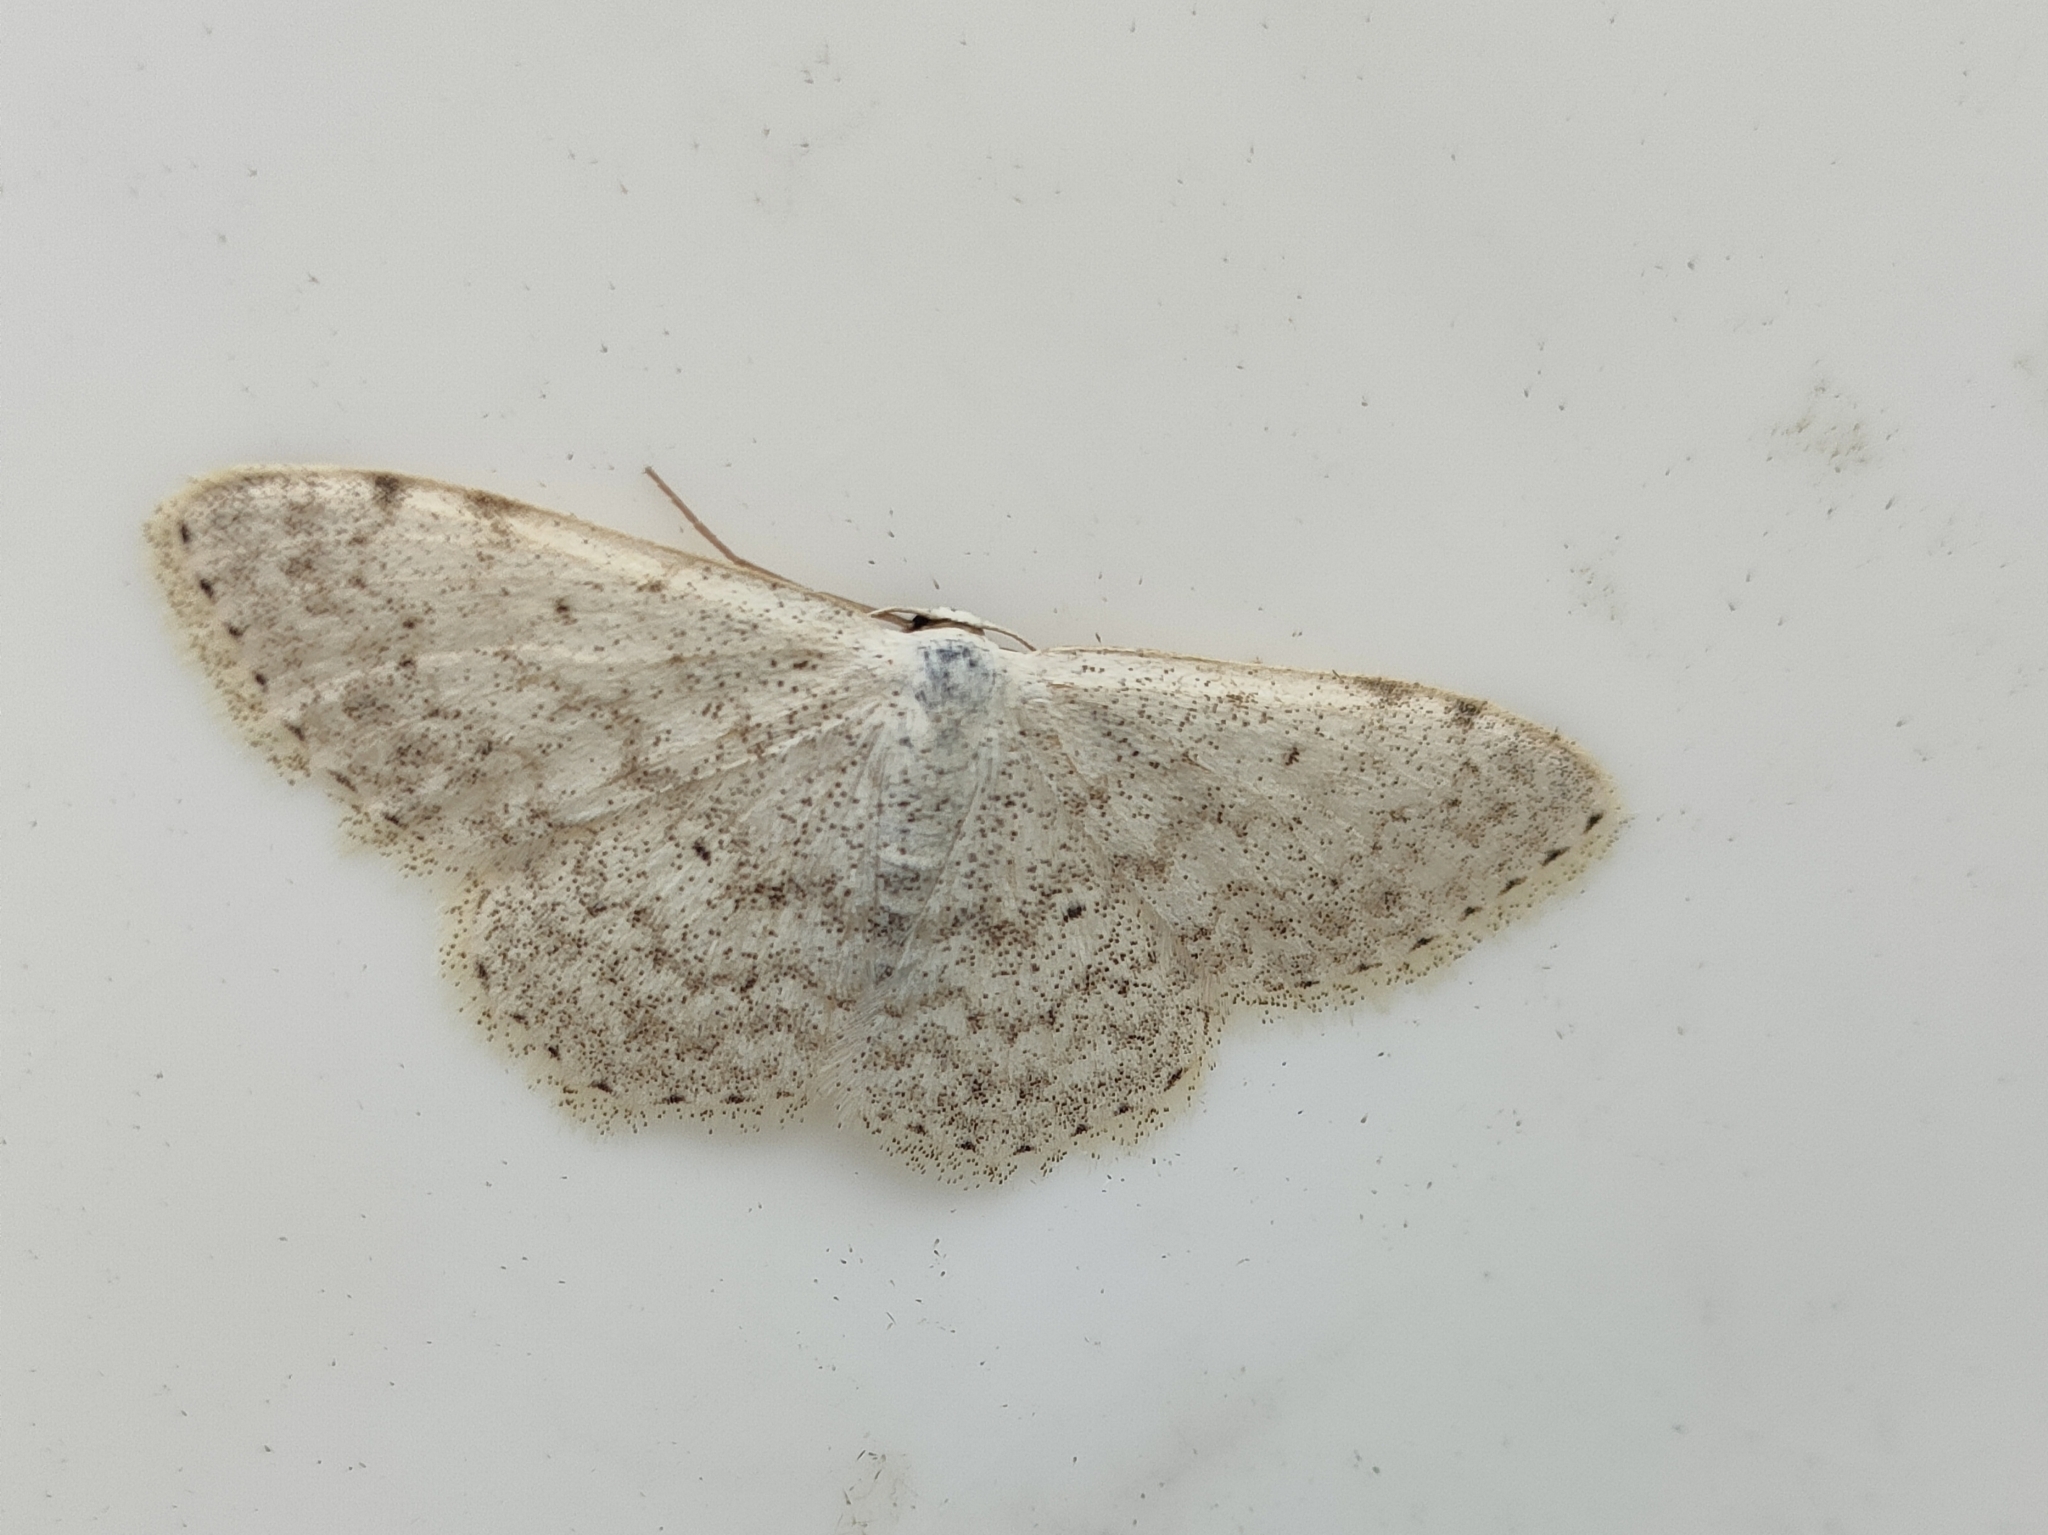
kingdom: Animalia
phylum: Arthropoda
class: Insecta
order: Lepidoptera
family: Geometridae
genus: Scopula
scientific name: Scopula marginepunctata
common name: Mullein wave
